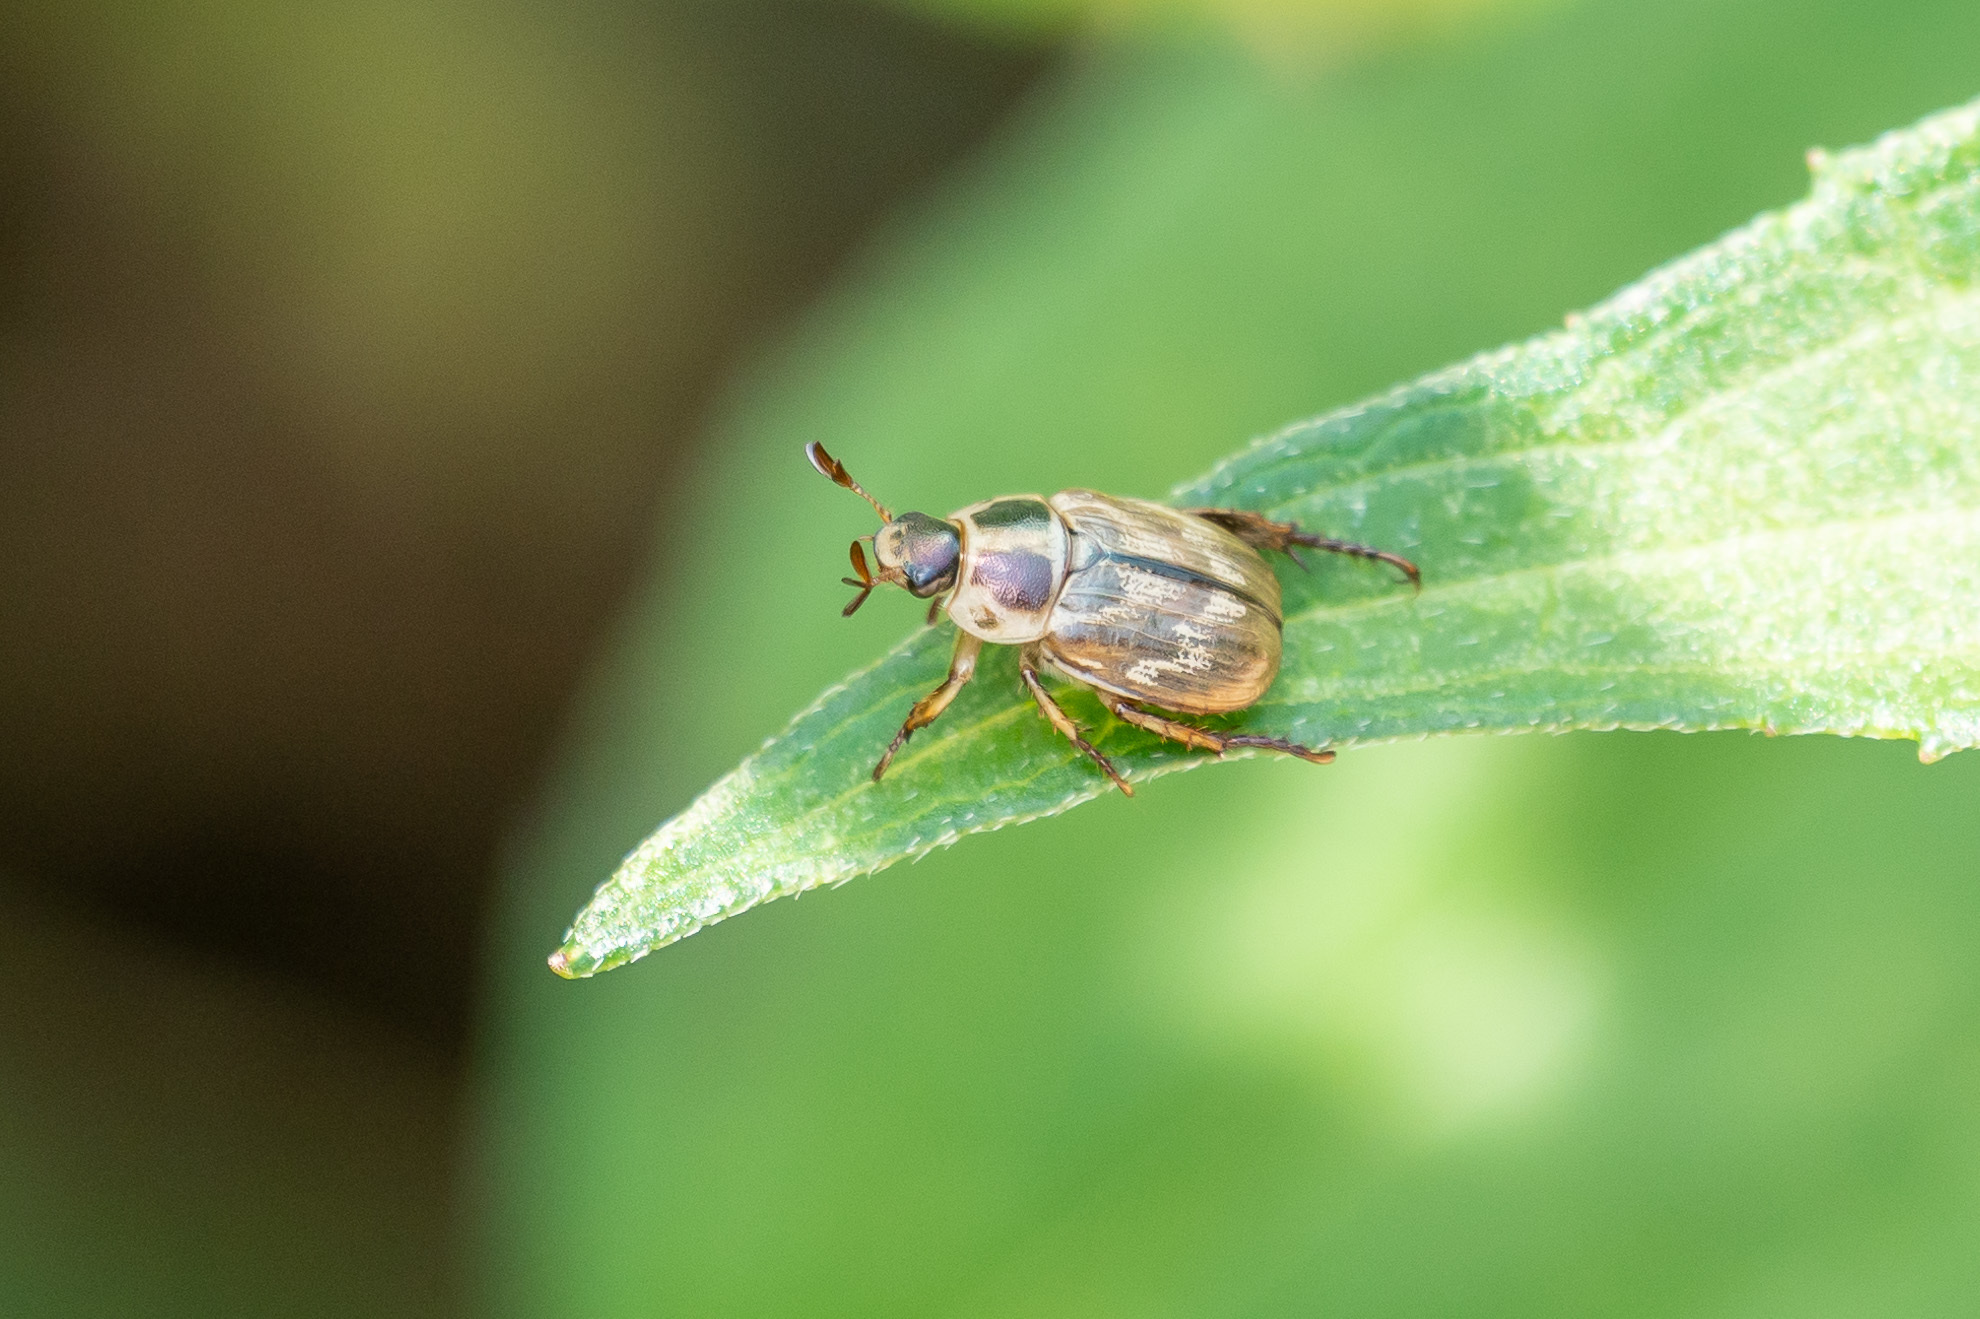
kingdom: Animalia
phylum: Arthropoda
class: Insecta
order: Coleoptera
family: Scarabaeidae
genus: Exomala
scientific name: Exomala orientalis
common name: Oriental beetle
